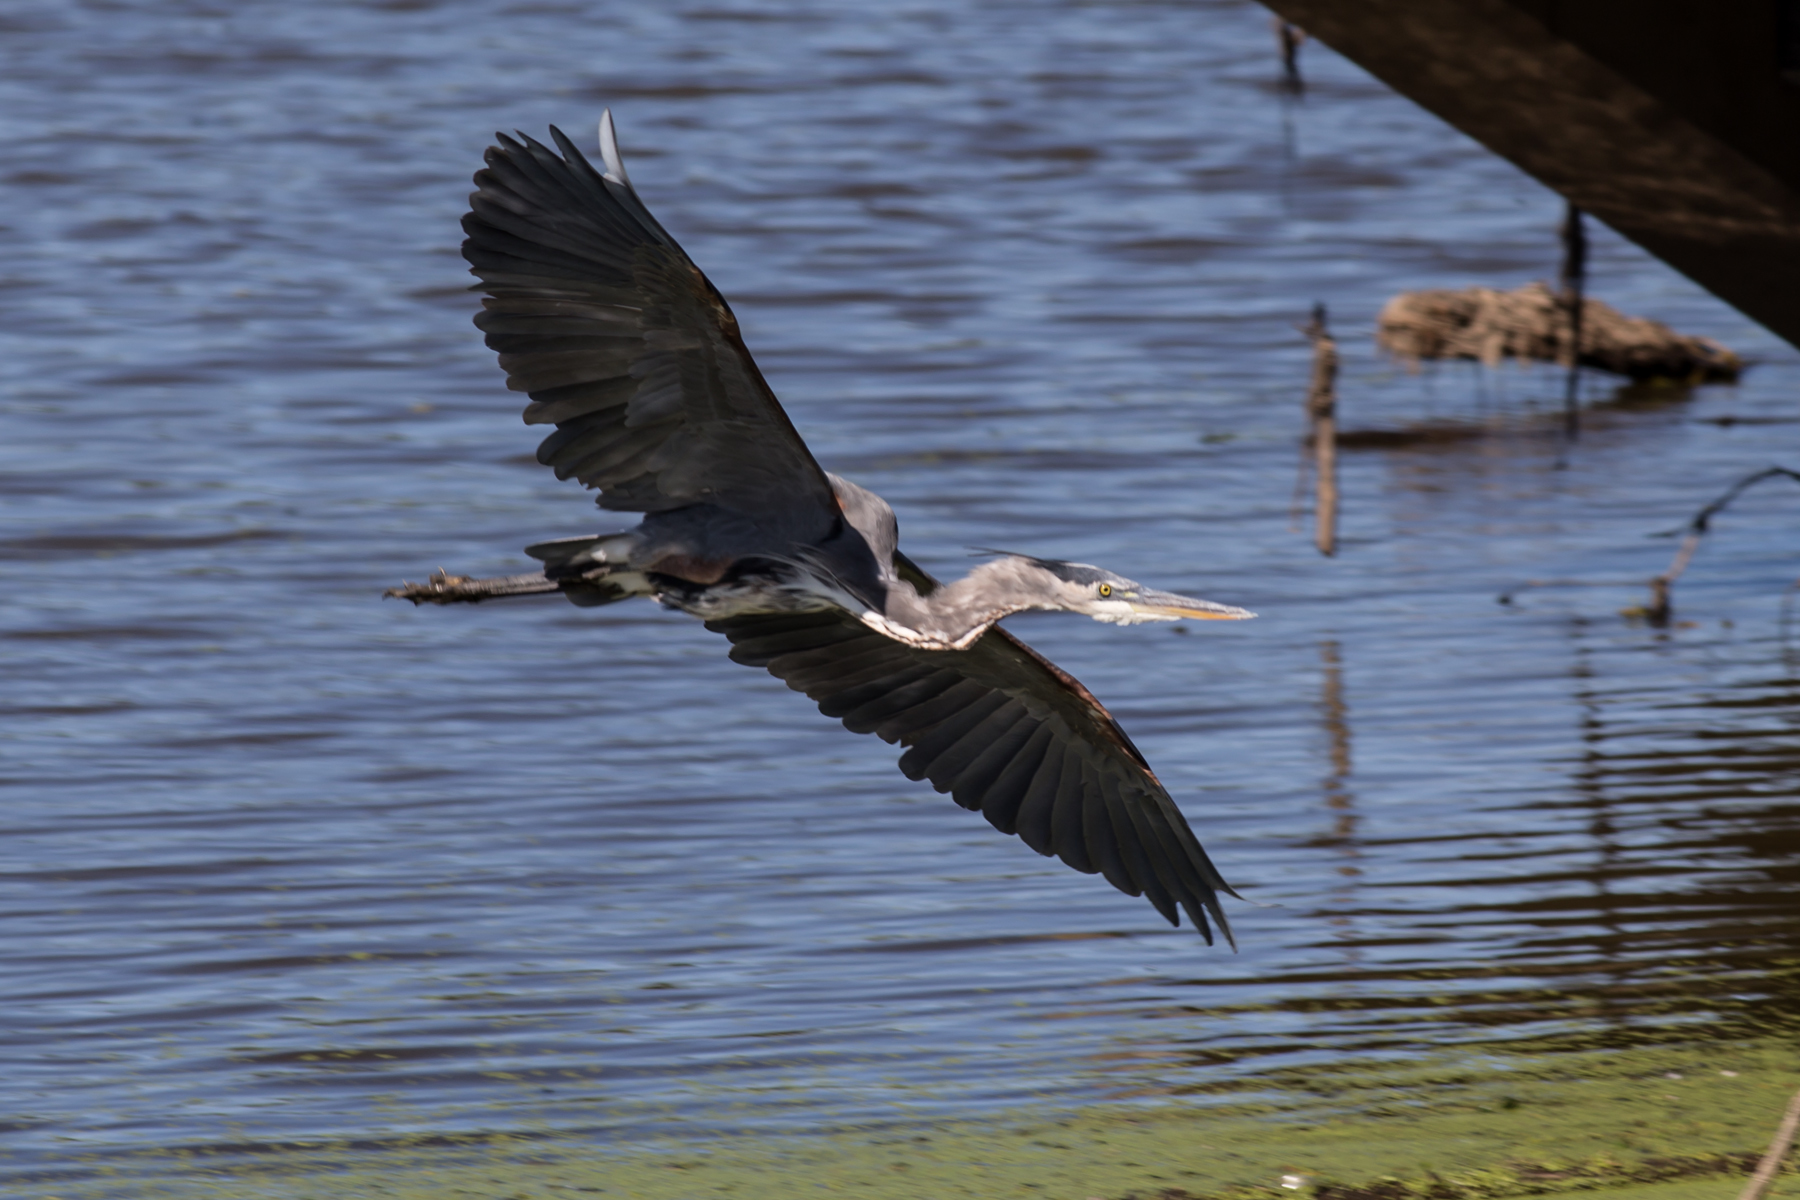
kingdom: Animalia
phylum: Chordata
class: Aves
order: Pelecaniformes
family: Ardeidae
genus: Ardea
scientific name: Ardea herodias
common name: Great blue heron
